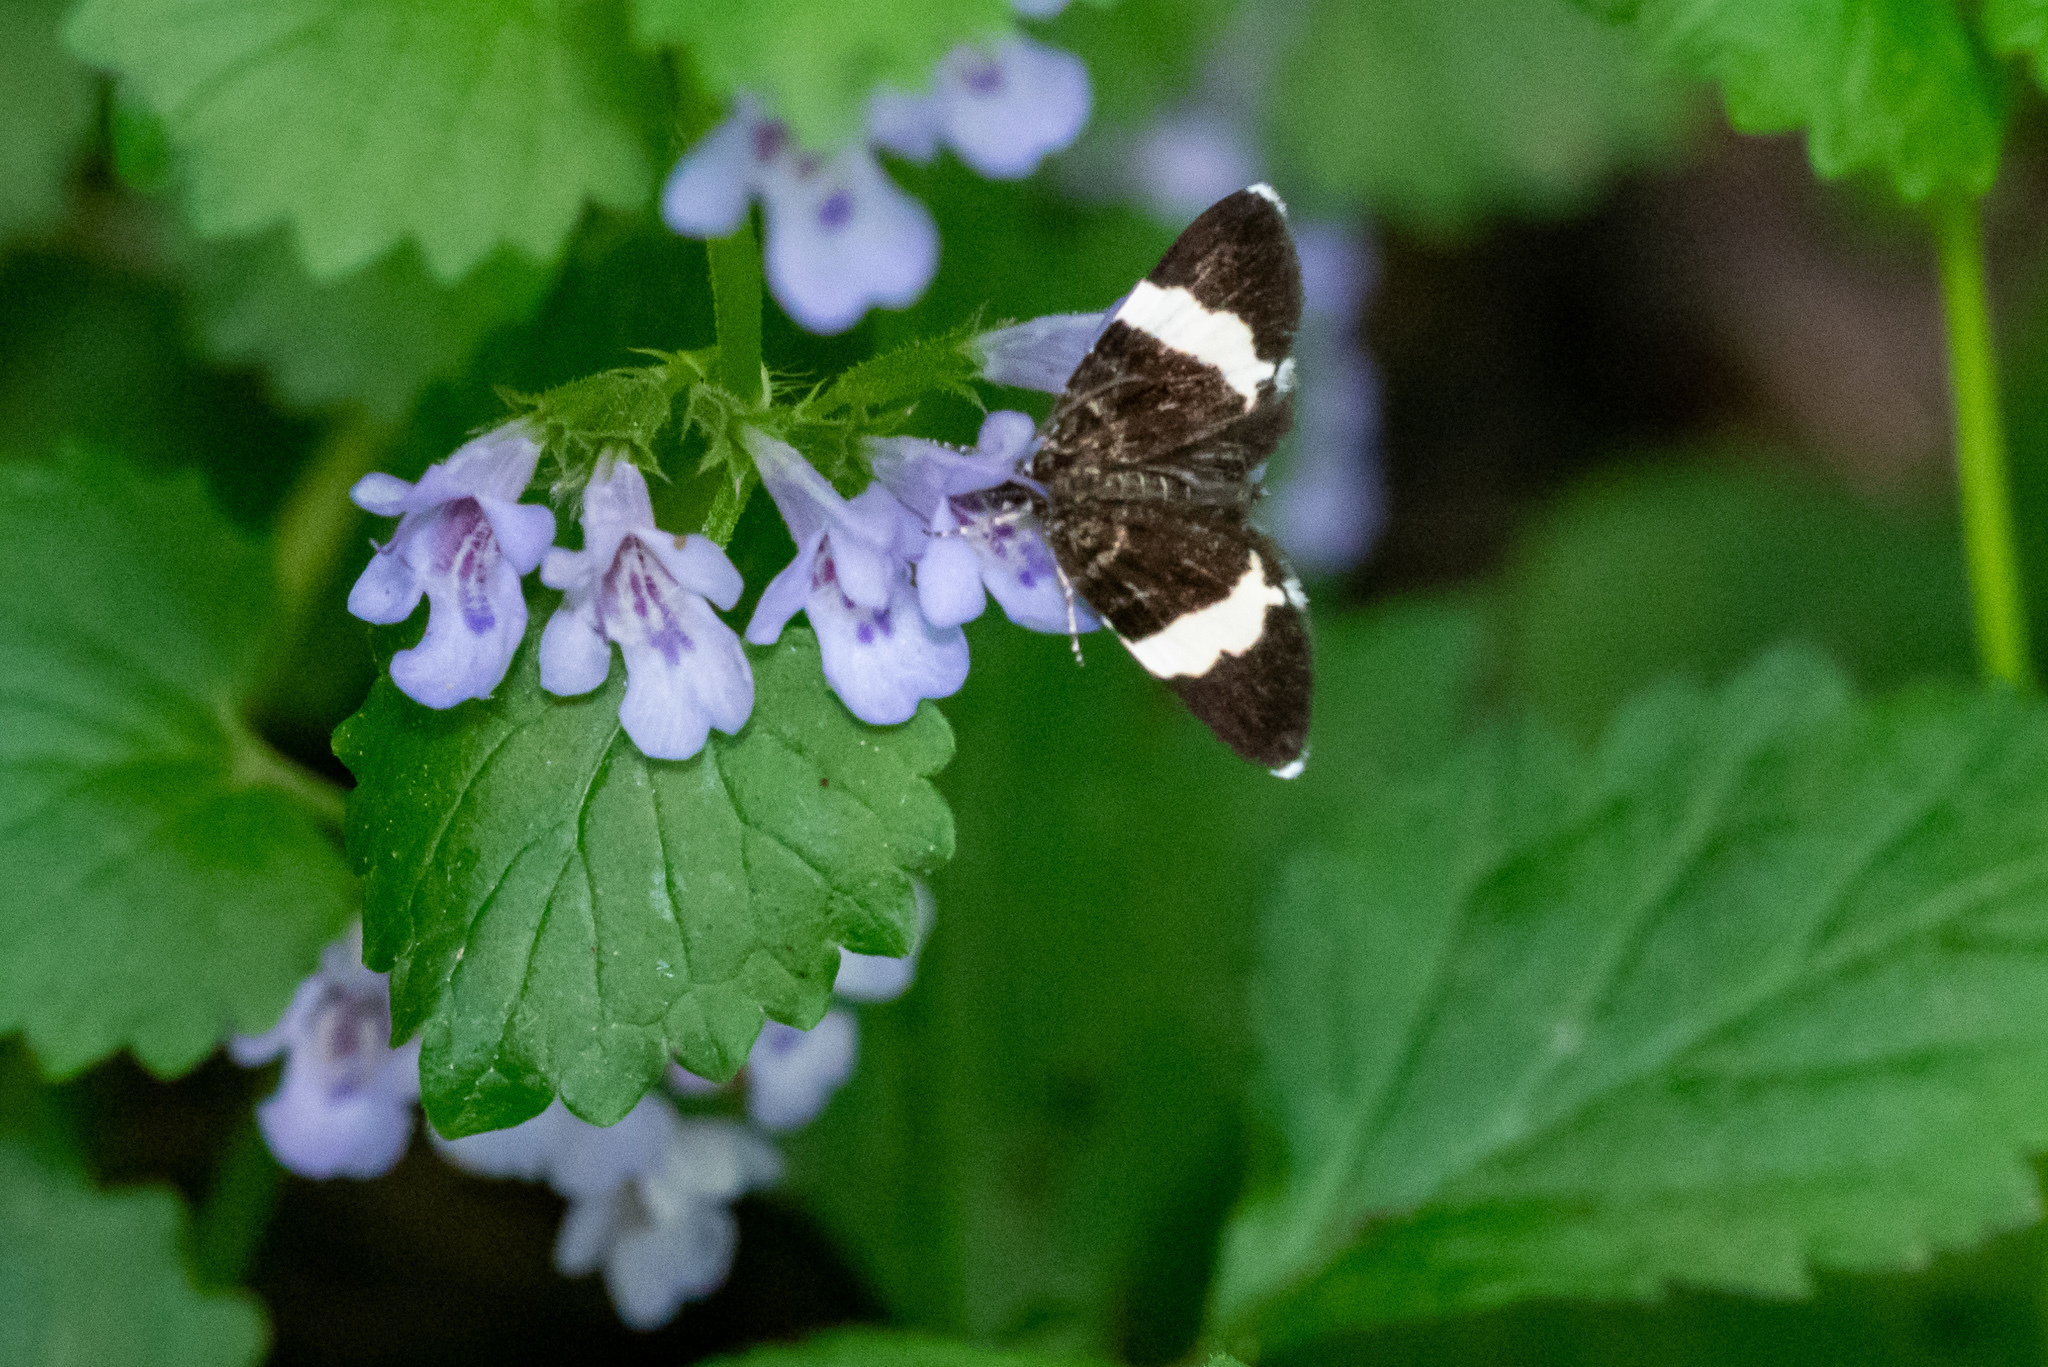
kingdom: Animalia
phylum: Arthropoda
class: Insecta
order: Lepidoptera
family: Geometridae
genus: Trichodezia
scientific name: Trichodezia albovittata
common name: White striped black
